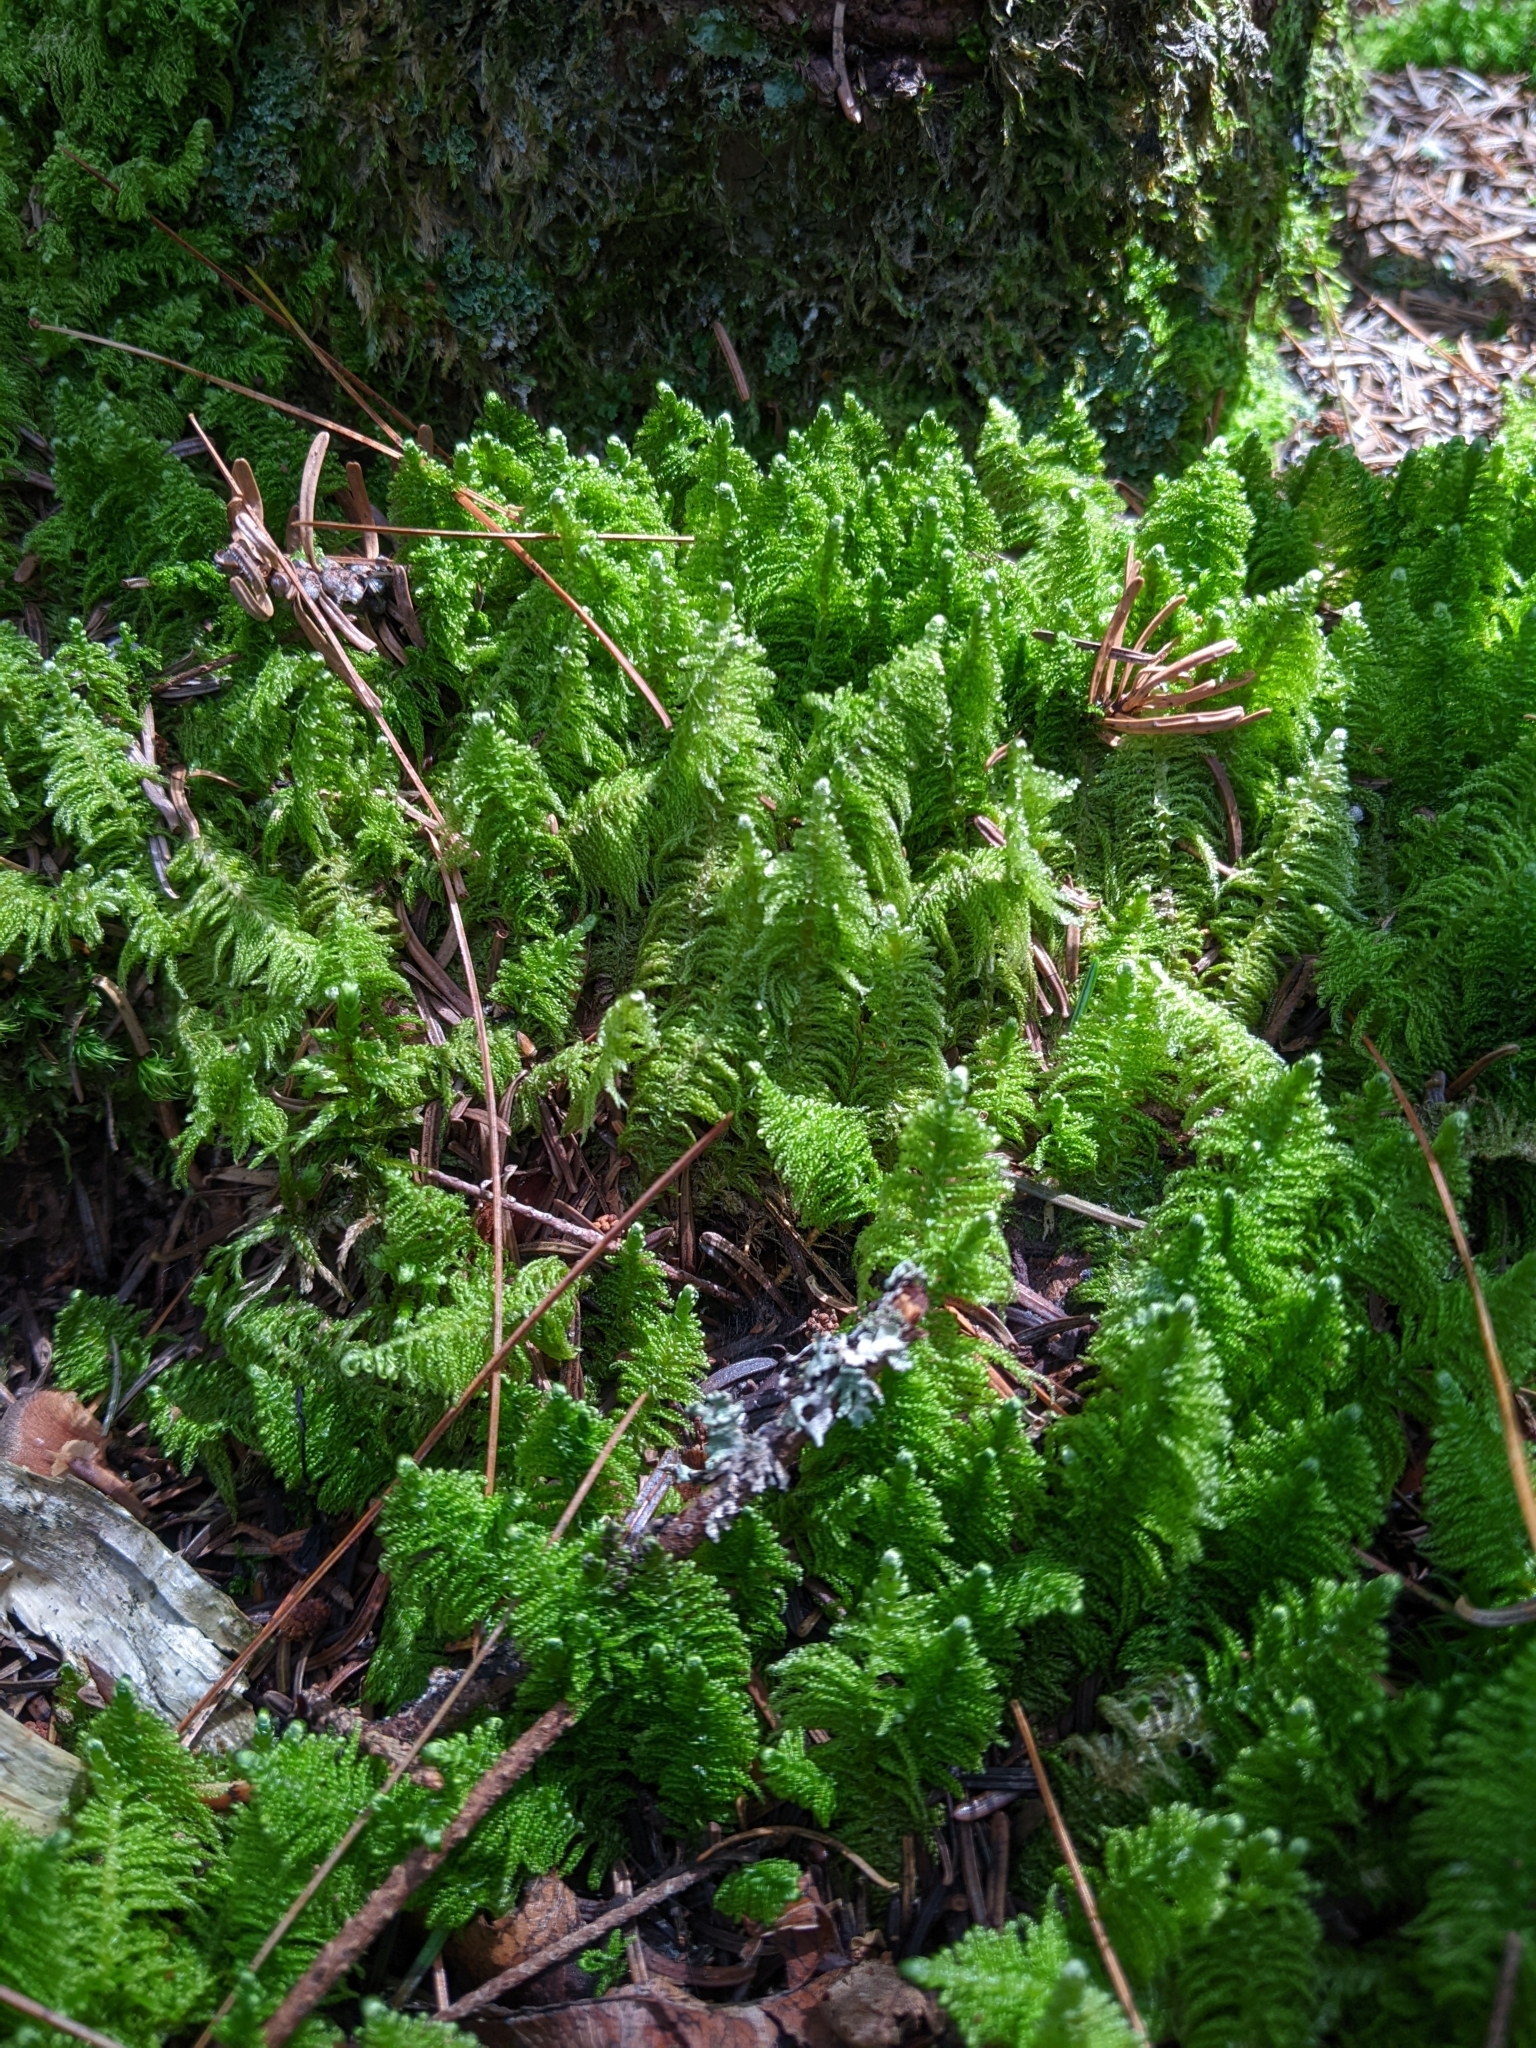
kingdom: Plantae
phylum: Bryophyta
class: Bryopsida
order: Hypnales
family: Pylaisiaceae
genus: Ptilium
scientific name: Ptilium crista-castrensis
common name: Knight's plume moss
